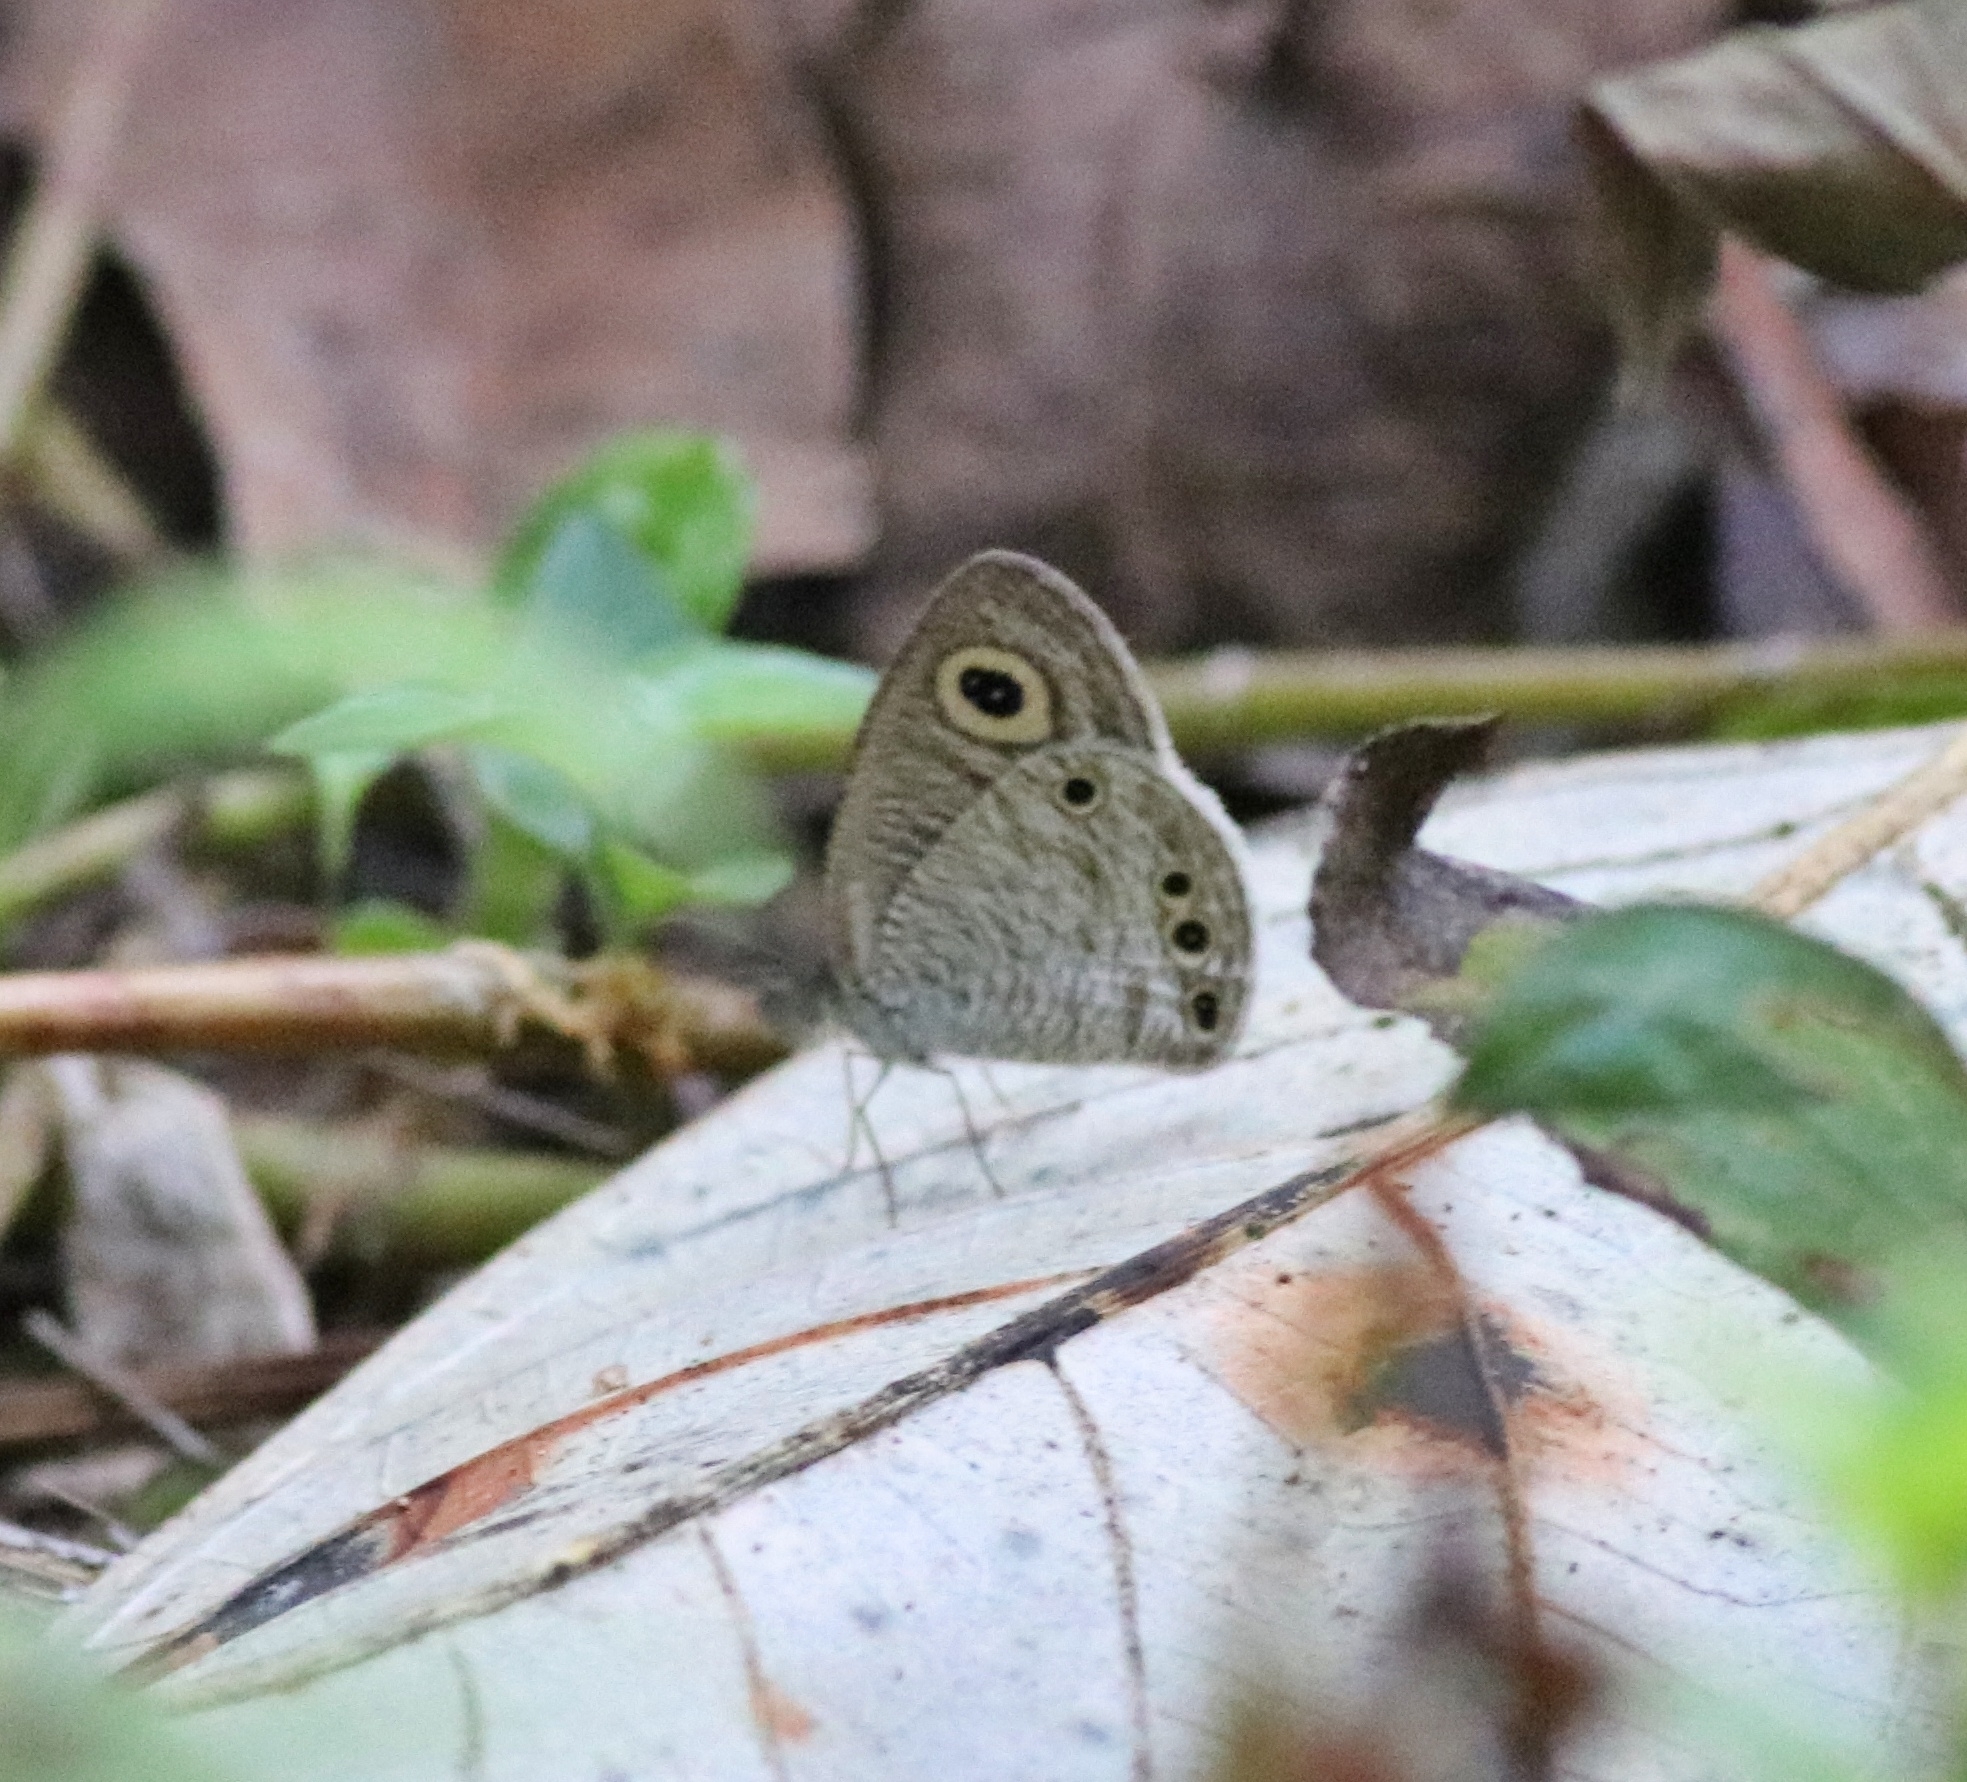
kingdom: Animalia
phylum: Arthropoda
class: Insecta
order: Lepidoptera
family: Nymphalidae
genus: Ypthima
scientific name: Ypthima huebneri
